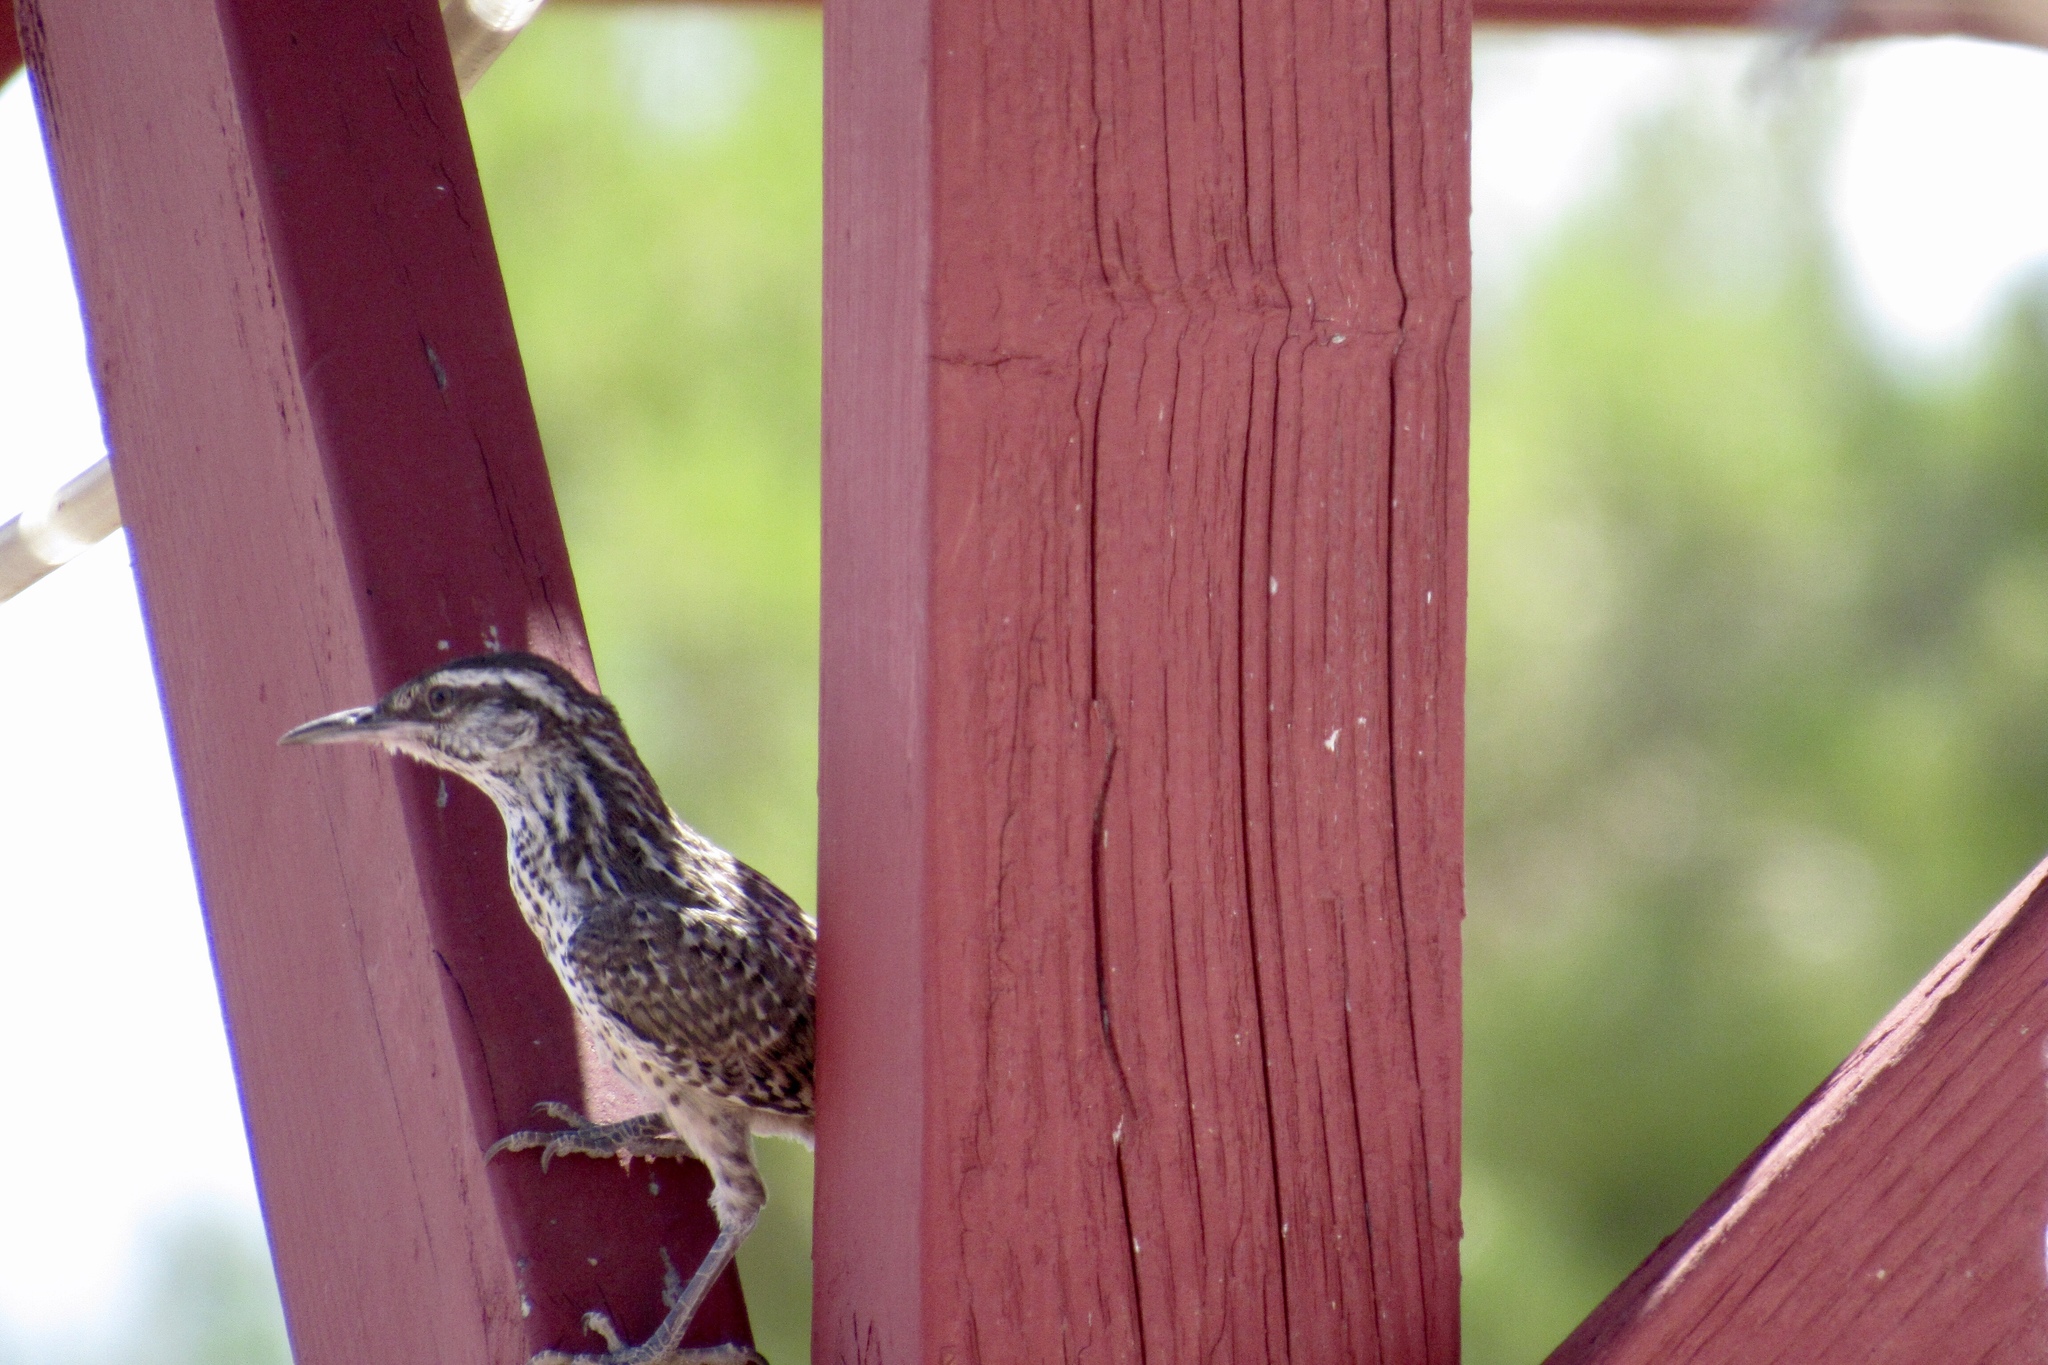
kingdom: Animalia
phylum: Chordata
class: Aves
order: Passeriformes
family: Troglodytidae
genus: Campylorhynchus
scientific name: Campylorhynchus brunneicapillus
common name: Cactus wren
